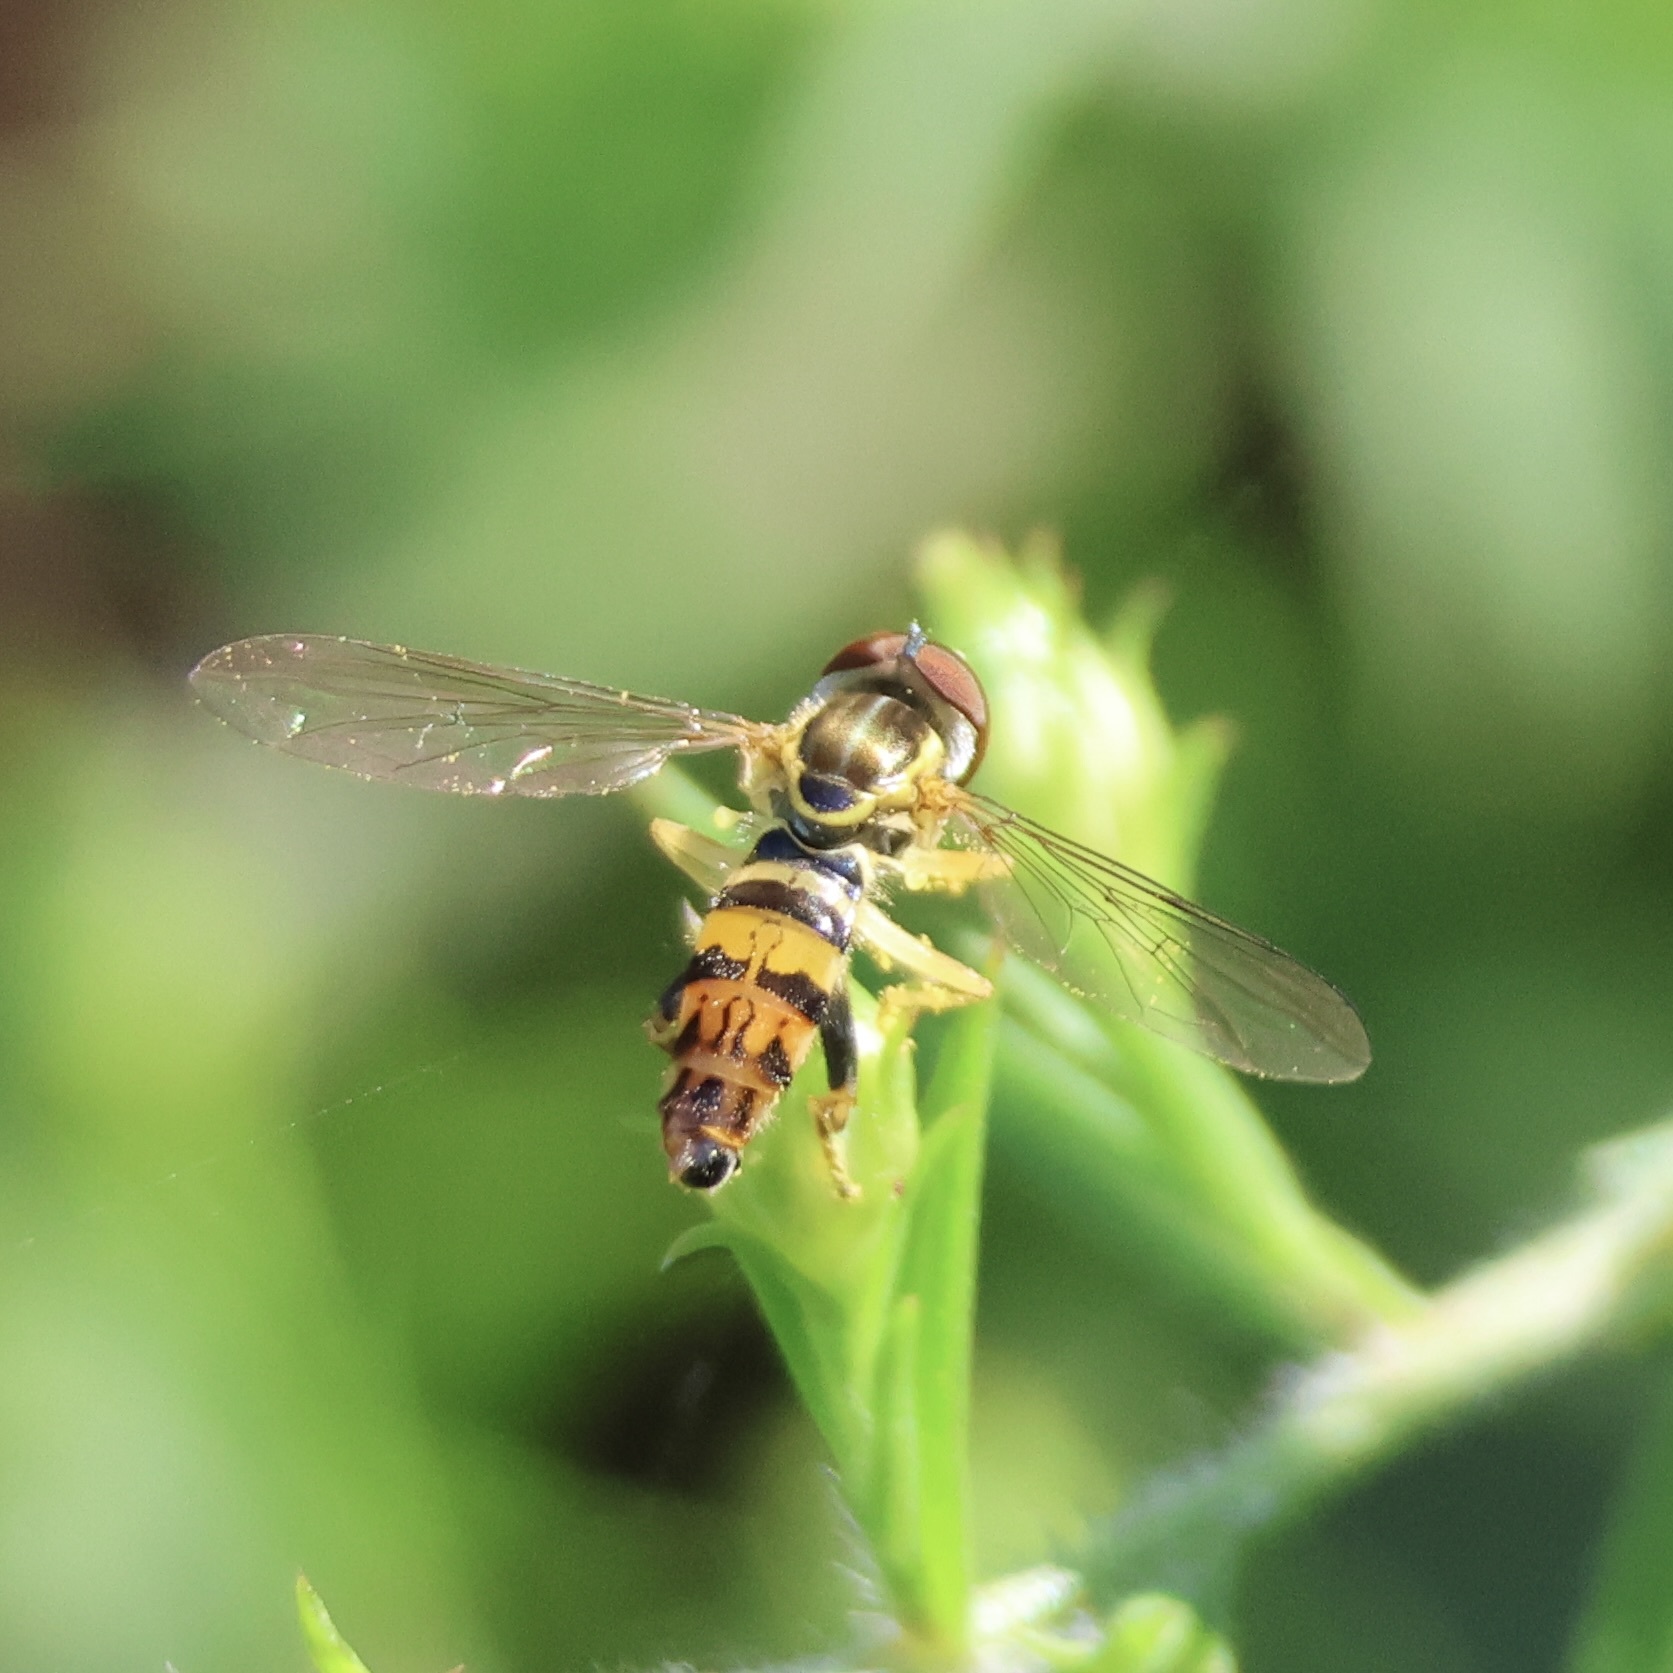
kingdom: Animalia
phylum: Arthropoda
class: Insecta
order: Diptera
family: Syrphidae
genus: Toxomerus
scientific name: Toxomerus geminatus
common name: Eastern calligrapher
